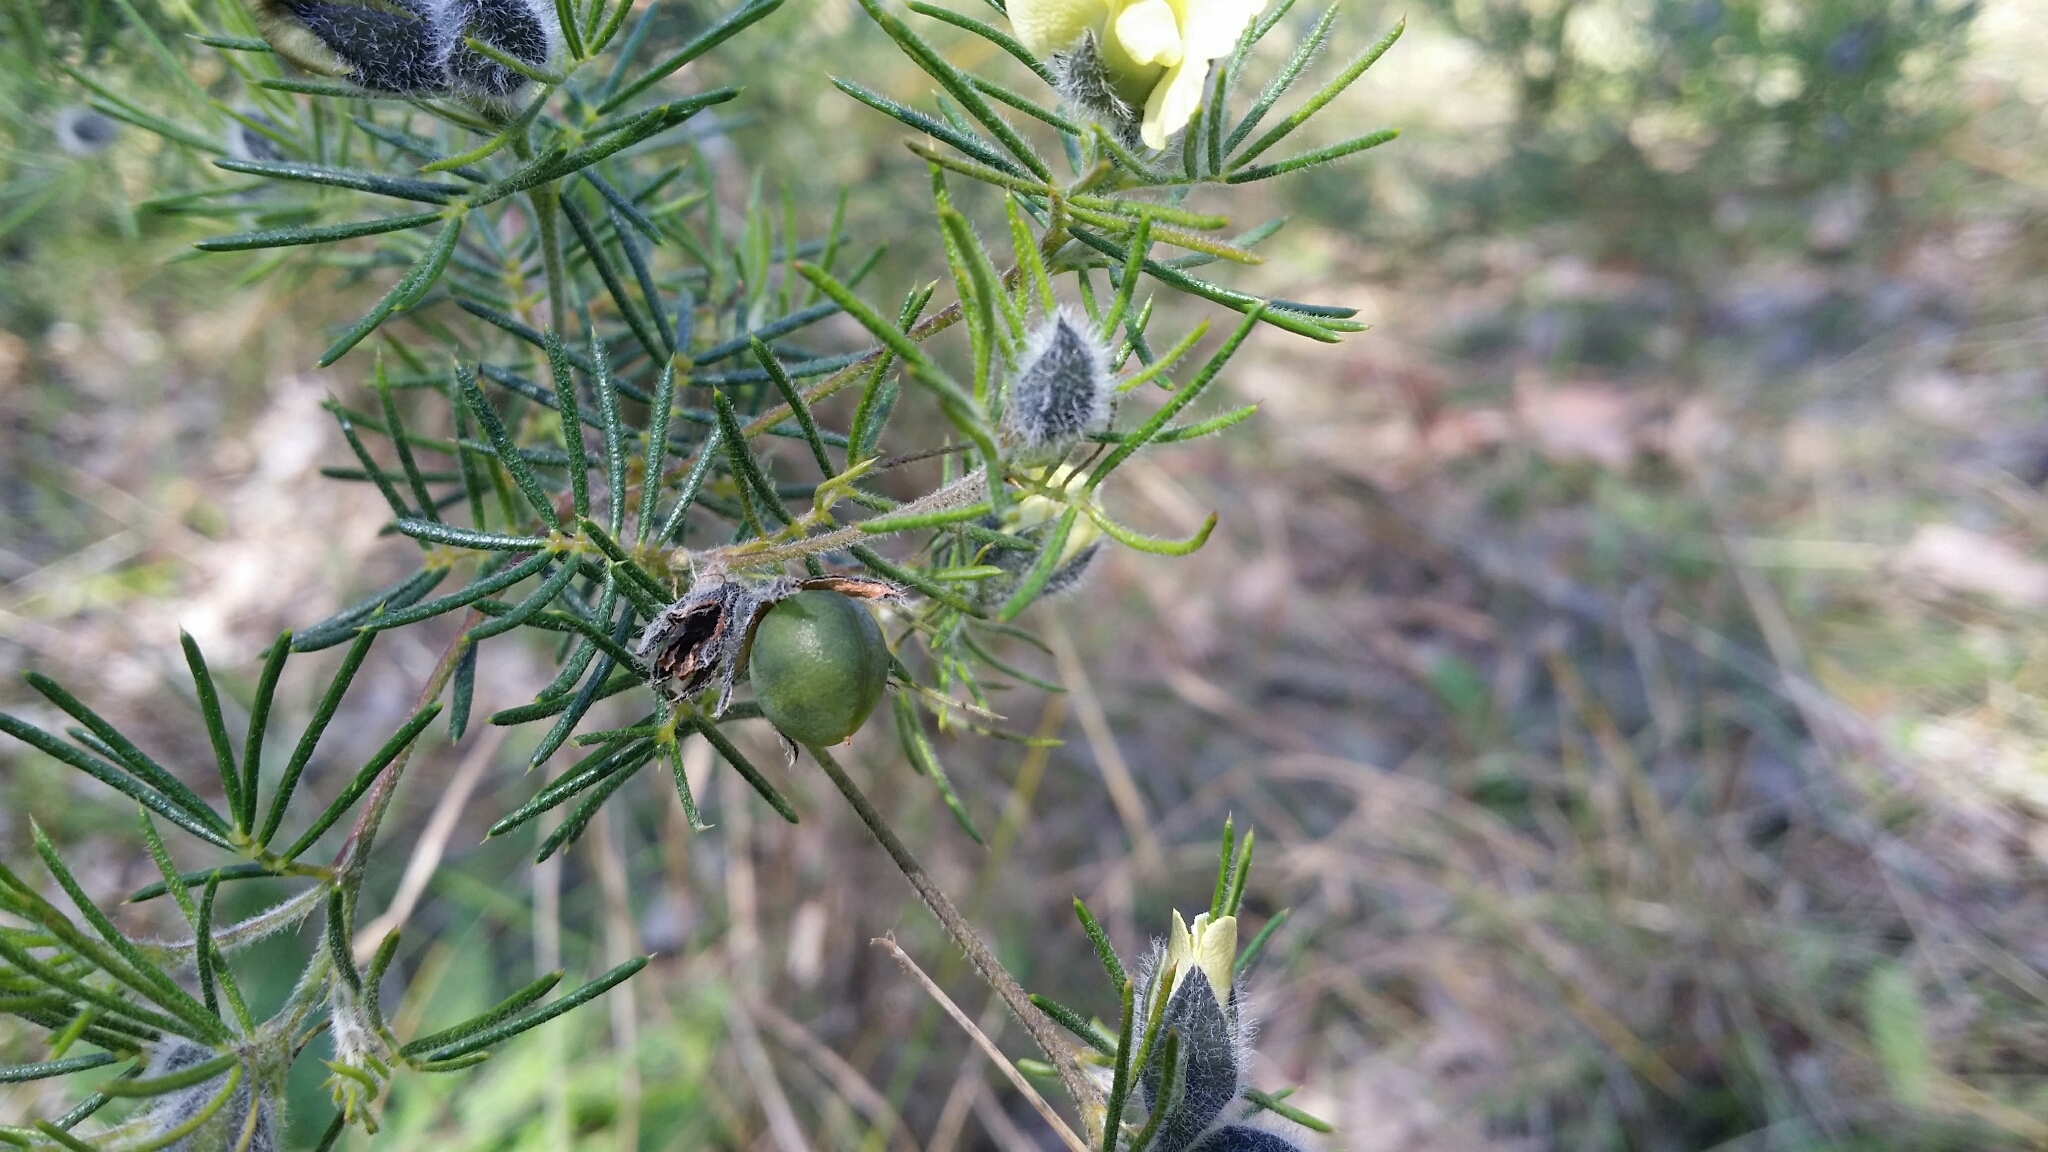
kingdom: Plantae
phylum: Tracheophyta
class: Magnoliopsida
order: Fabales
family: Fabaceae
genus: Gompholobium
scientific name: Gompholobium tomentosum
